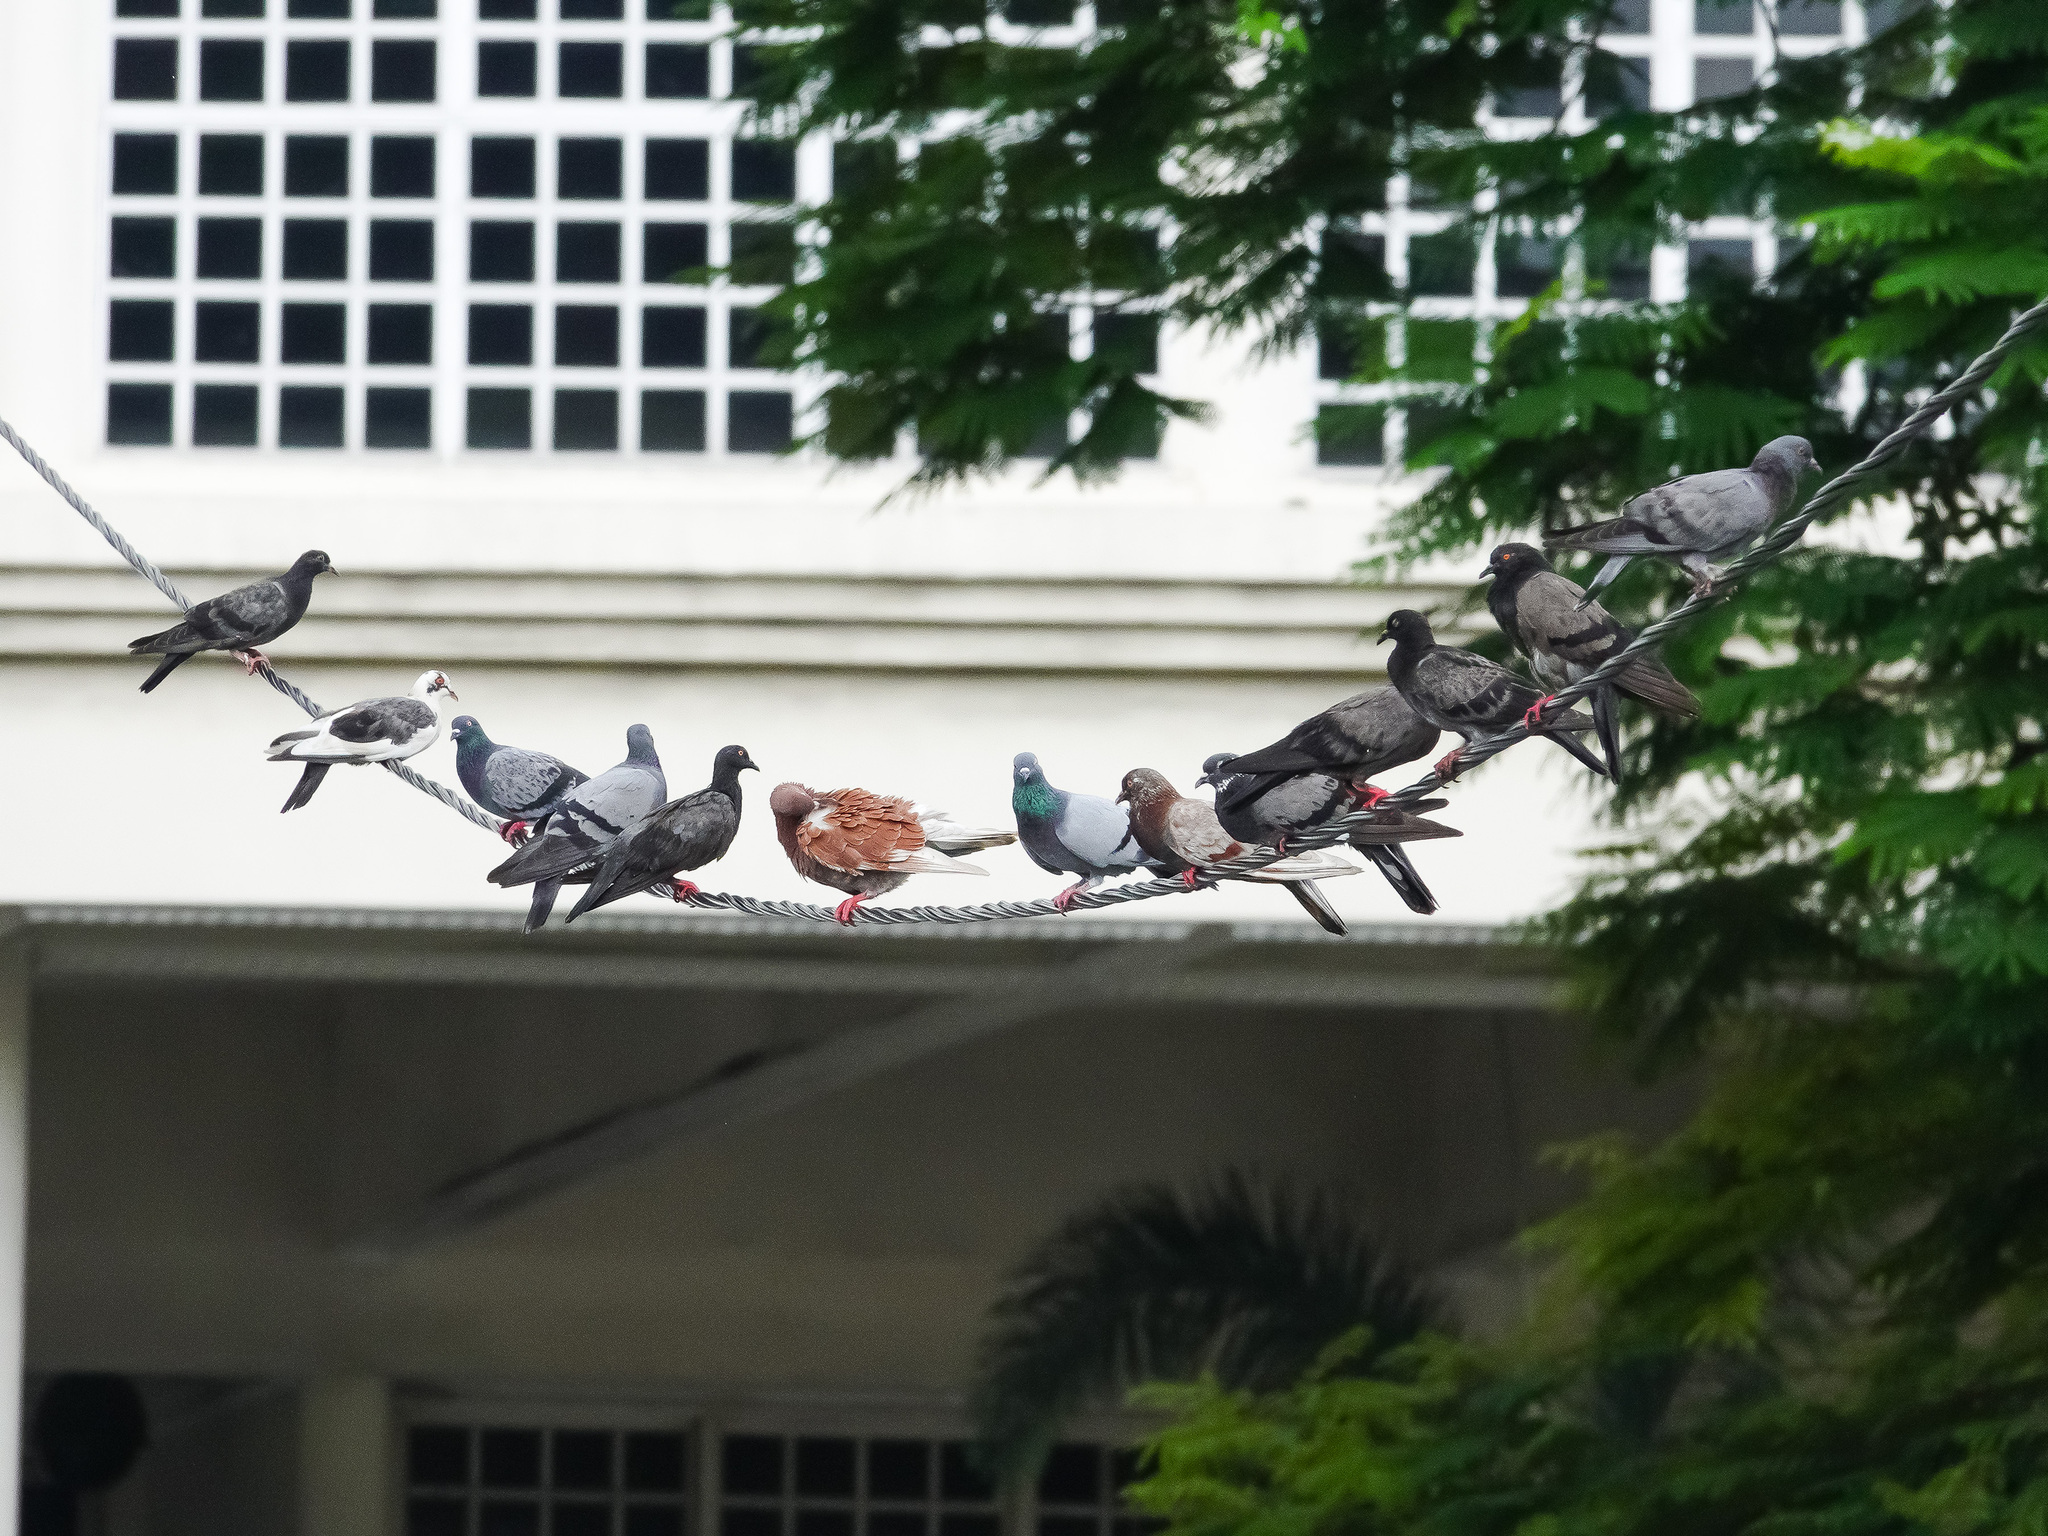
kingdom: Animalia
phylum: Chordata
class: Aves
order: Columbiformes
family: Columbidae
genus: Columba
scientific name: Columba livia
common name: Rock pigeon
